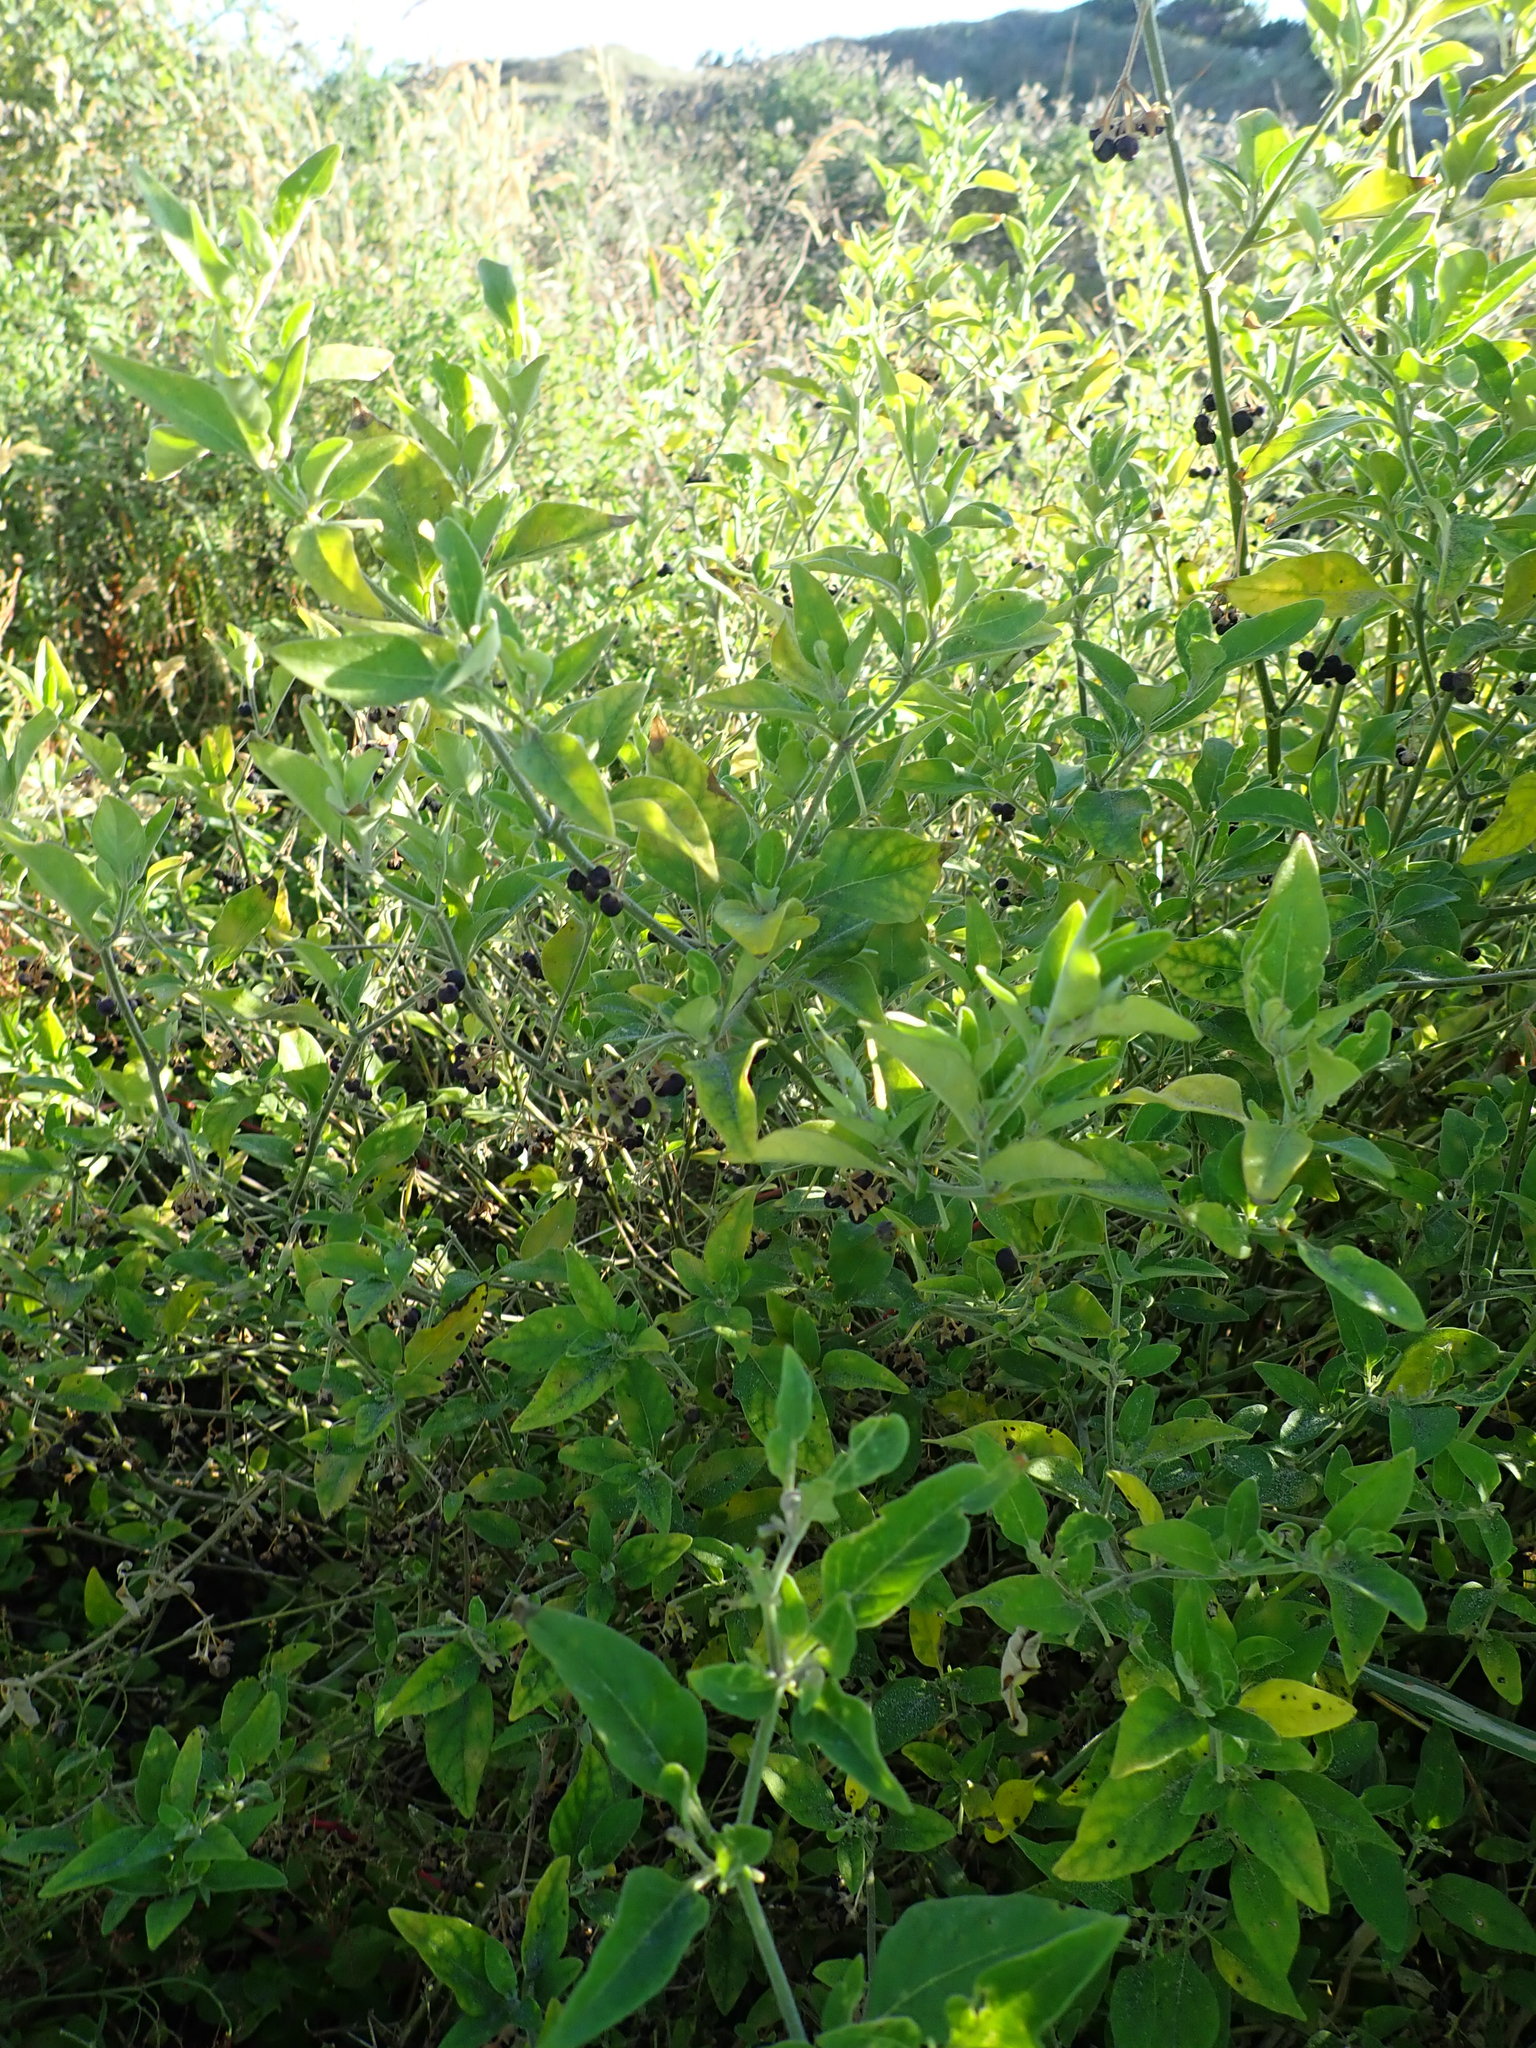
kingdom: Plantae
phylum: Tracheophyta
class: Magnoliopsida
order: Solanales
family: Solanaceae
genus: Solanum
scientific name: Solanum chenopodioides
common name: Tall nightshade
